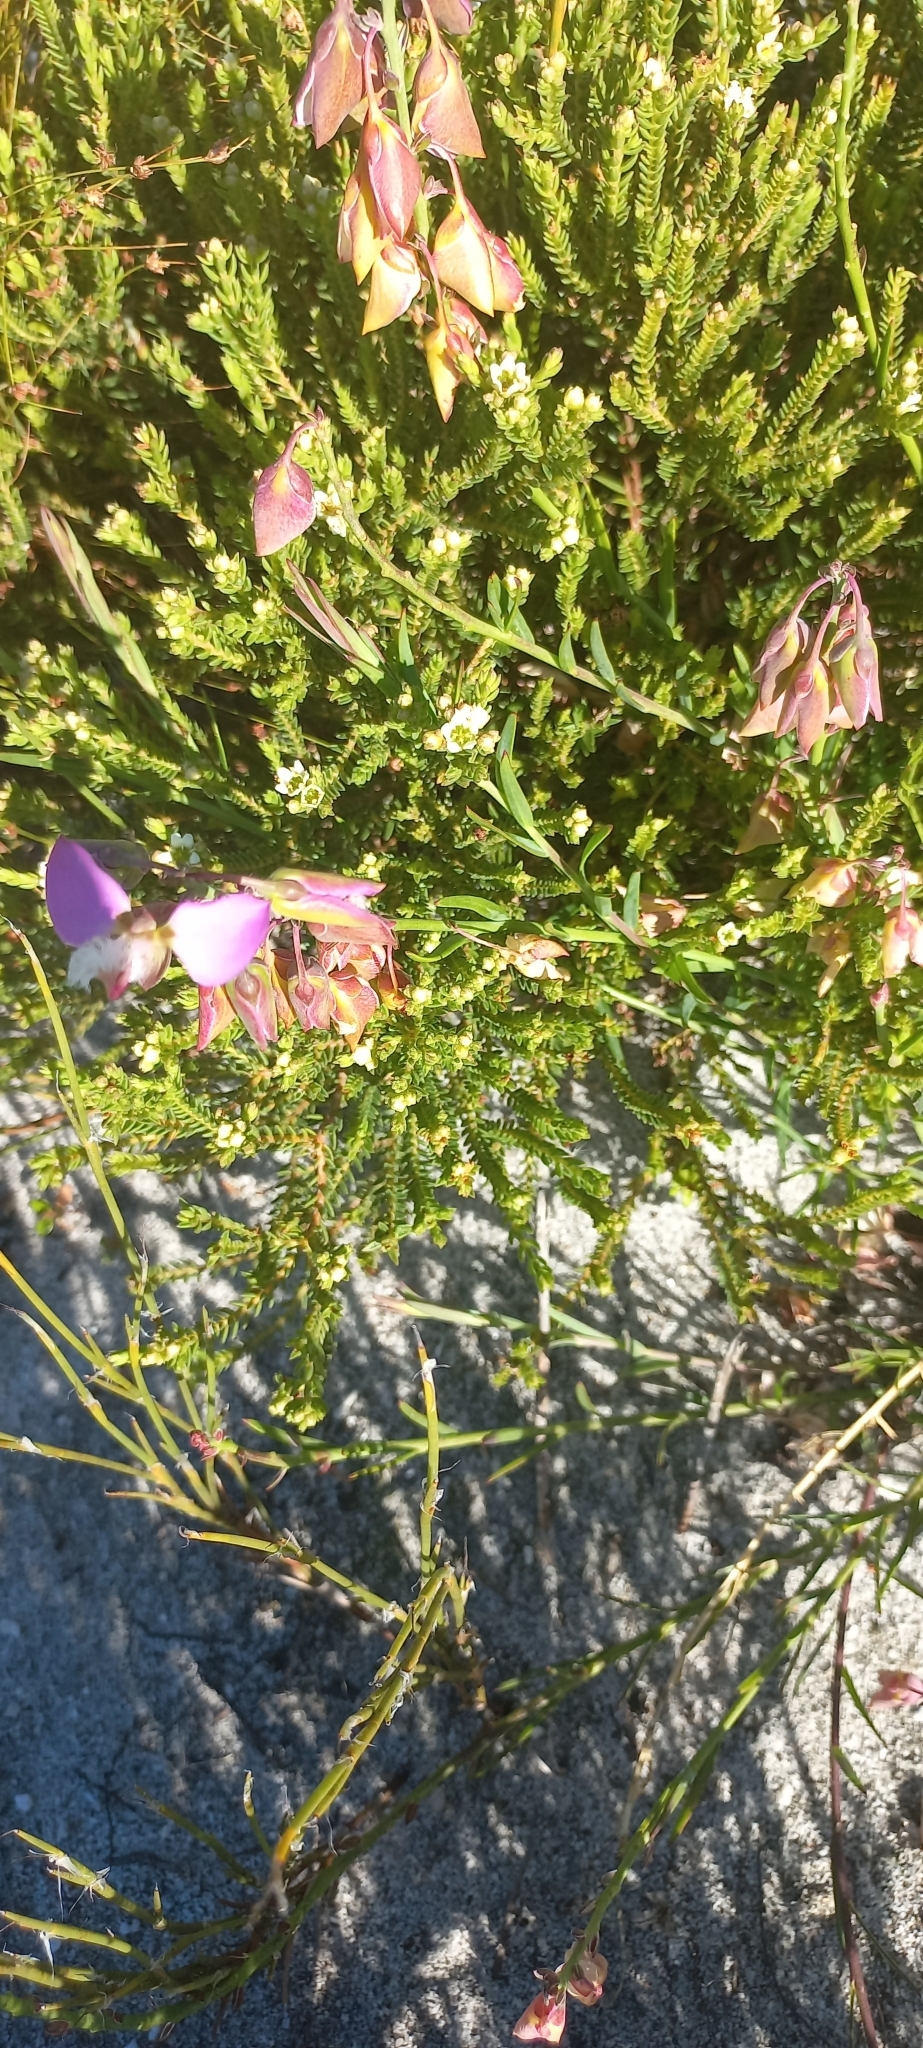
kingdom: Plantae
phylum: Tracheophyta
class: Magnoliopsida
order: Fabales
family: Polygalaceae
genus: Polygala
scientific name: Polygala bracteolata
